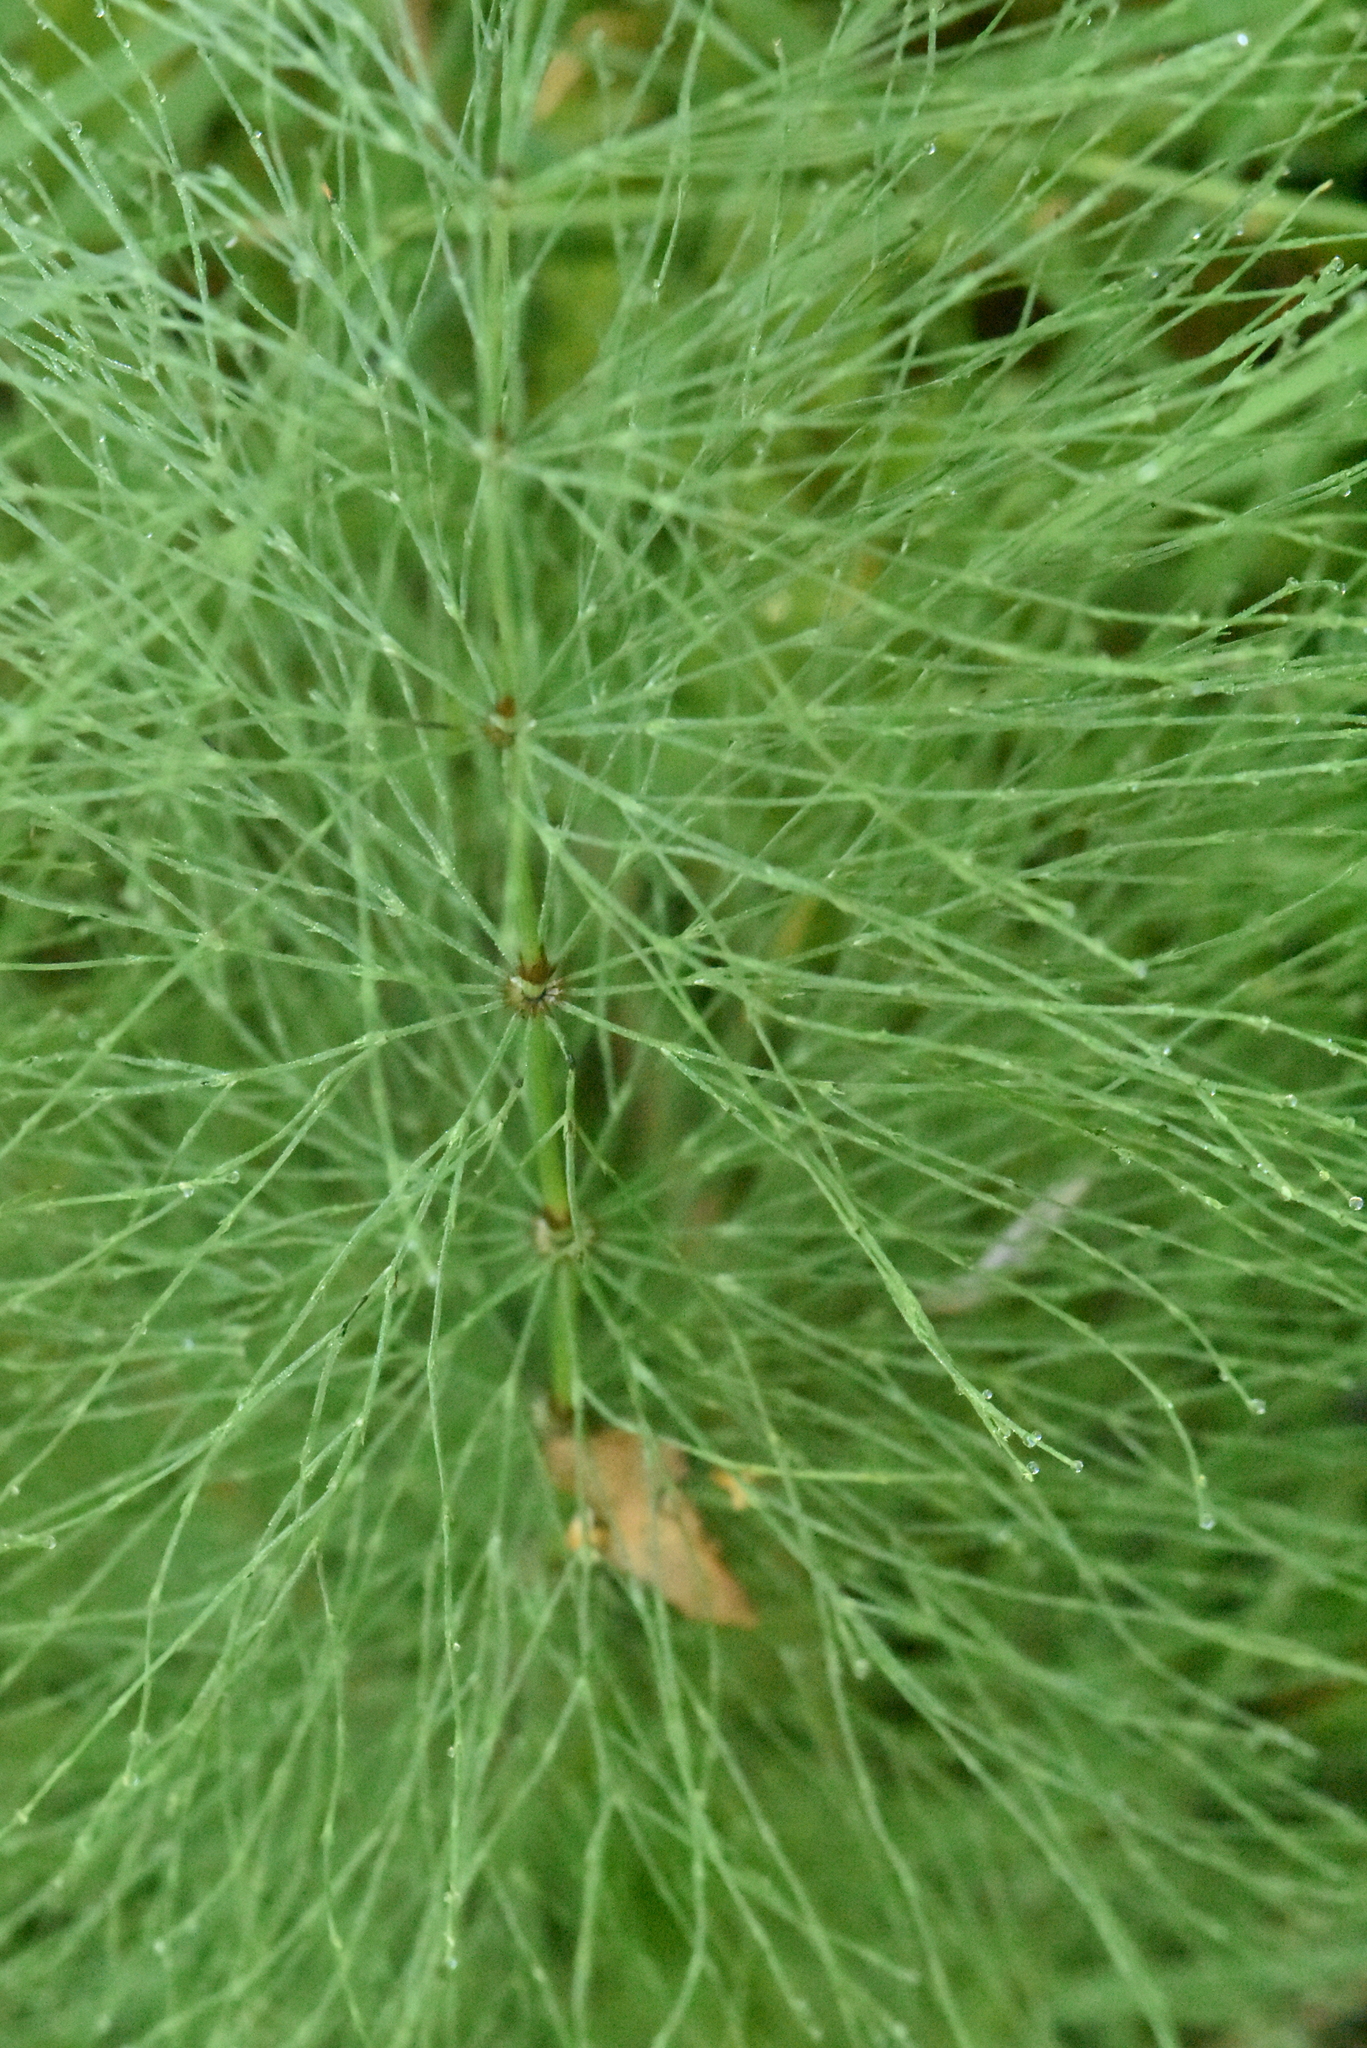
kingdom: Plantae
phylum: Tracheophyta
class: Polypodiopsida
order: Equisetales
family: Equisetaceae
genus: Equisetum
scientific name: Equisetum sylvaticum
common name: Wood horsetail
